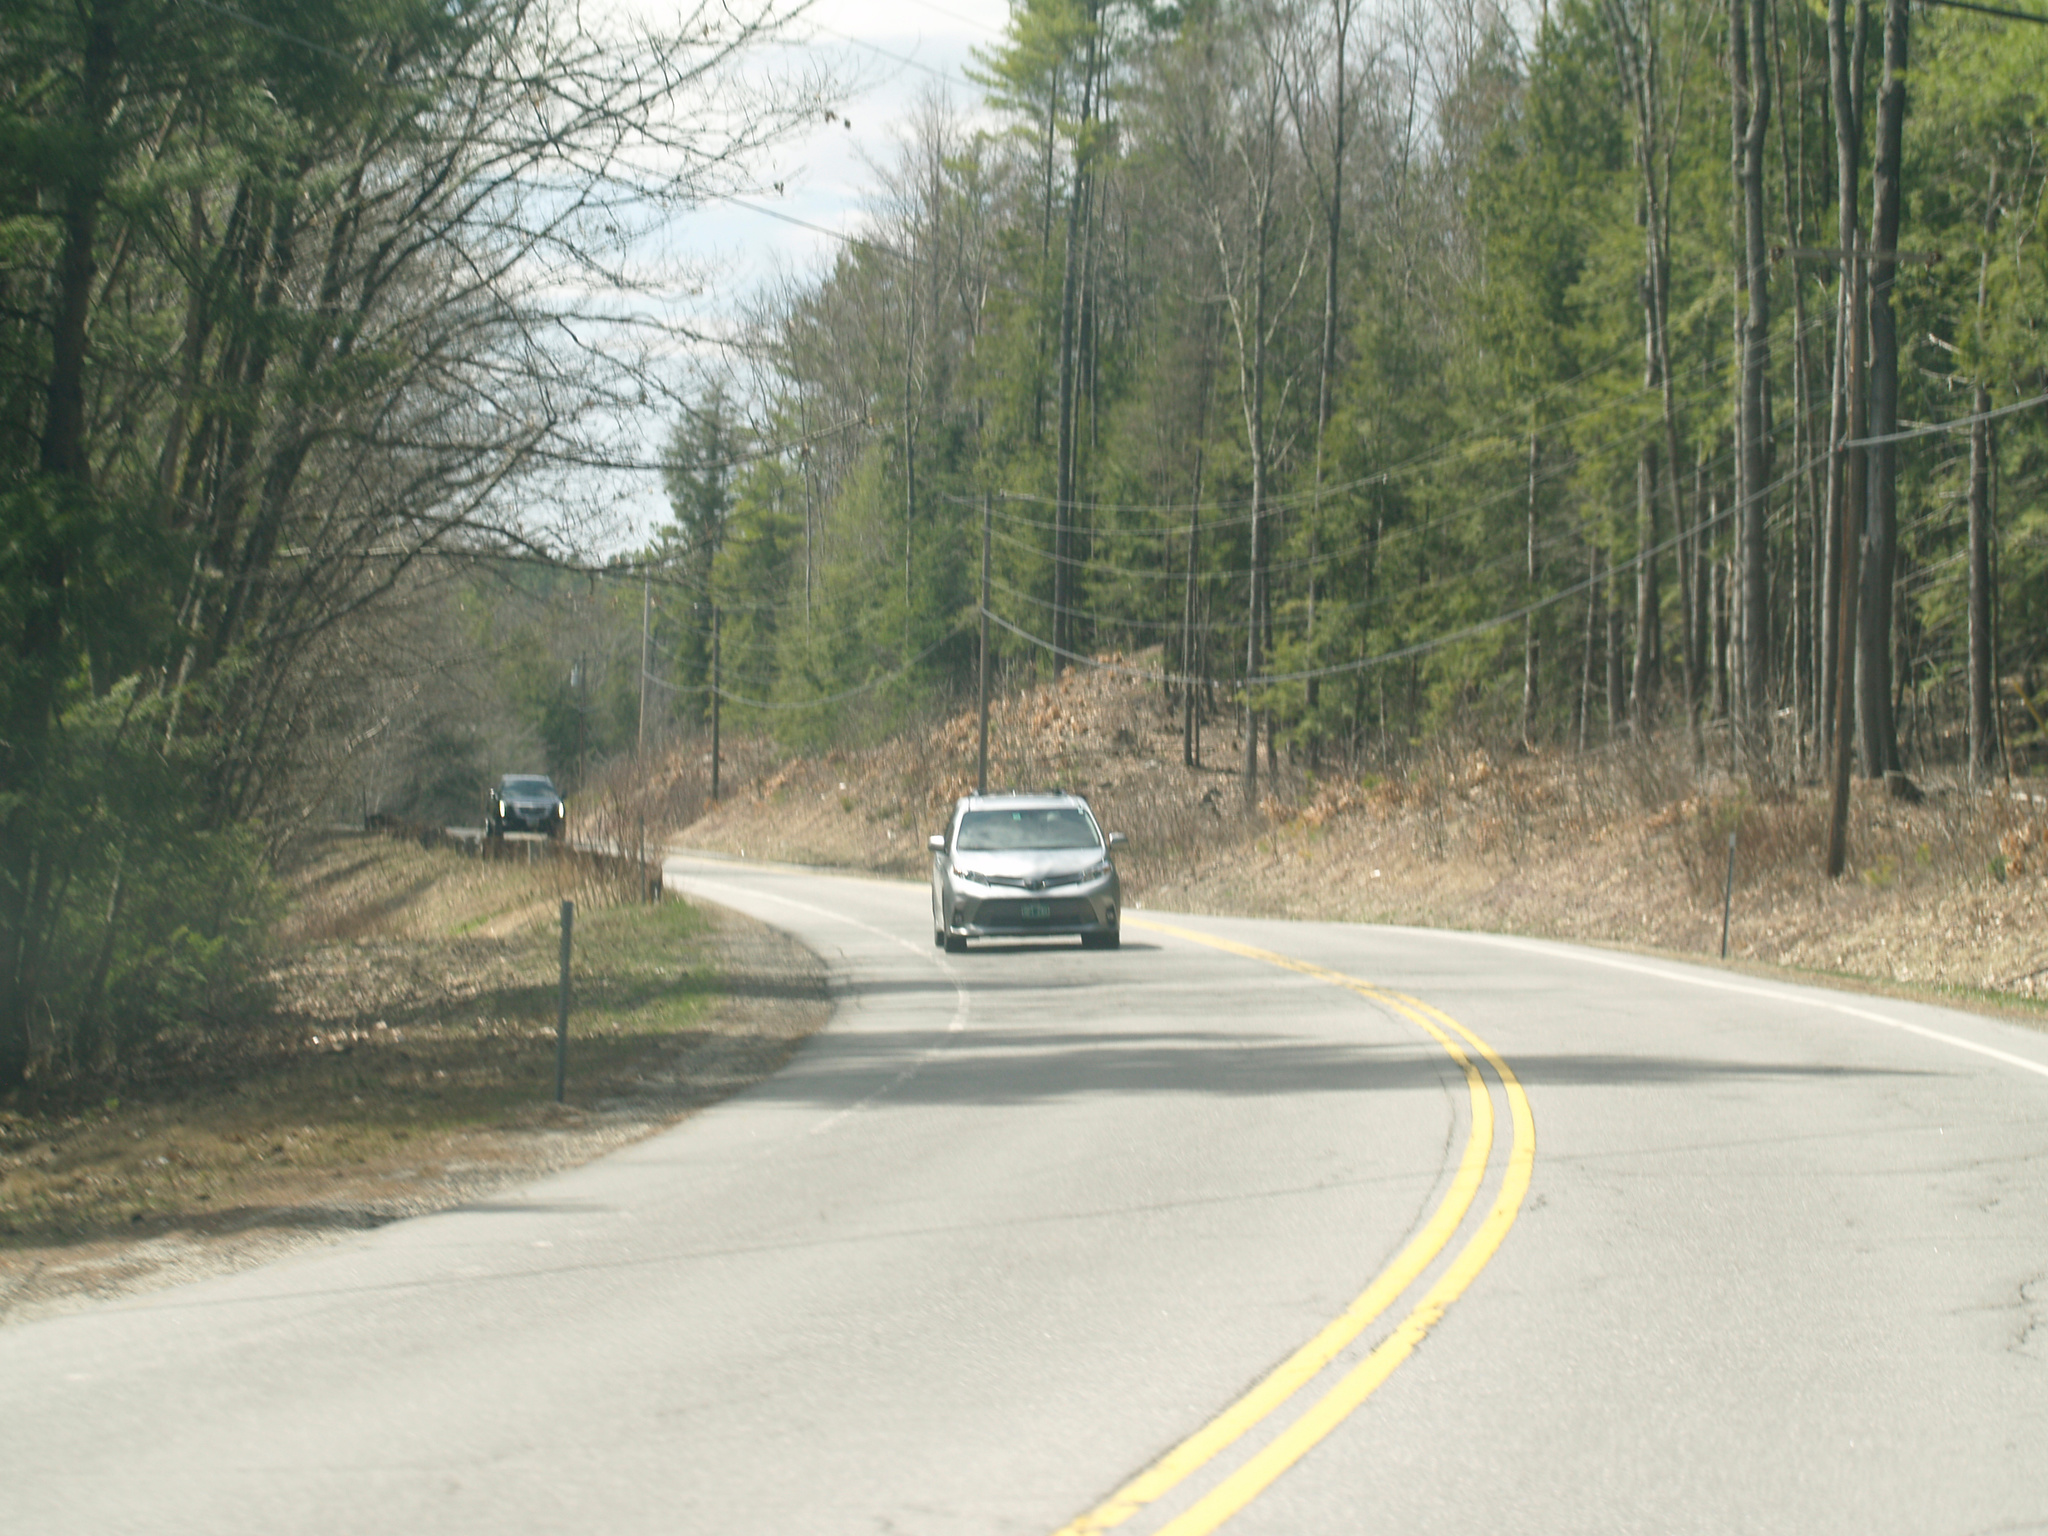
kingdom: Plantae
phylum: Tracheophyta
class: Pinopsida
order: Pinales
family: Pinaceae
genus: Pinus
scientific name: Pinus strobus
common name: Weymouth pine
